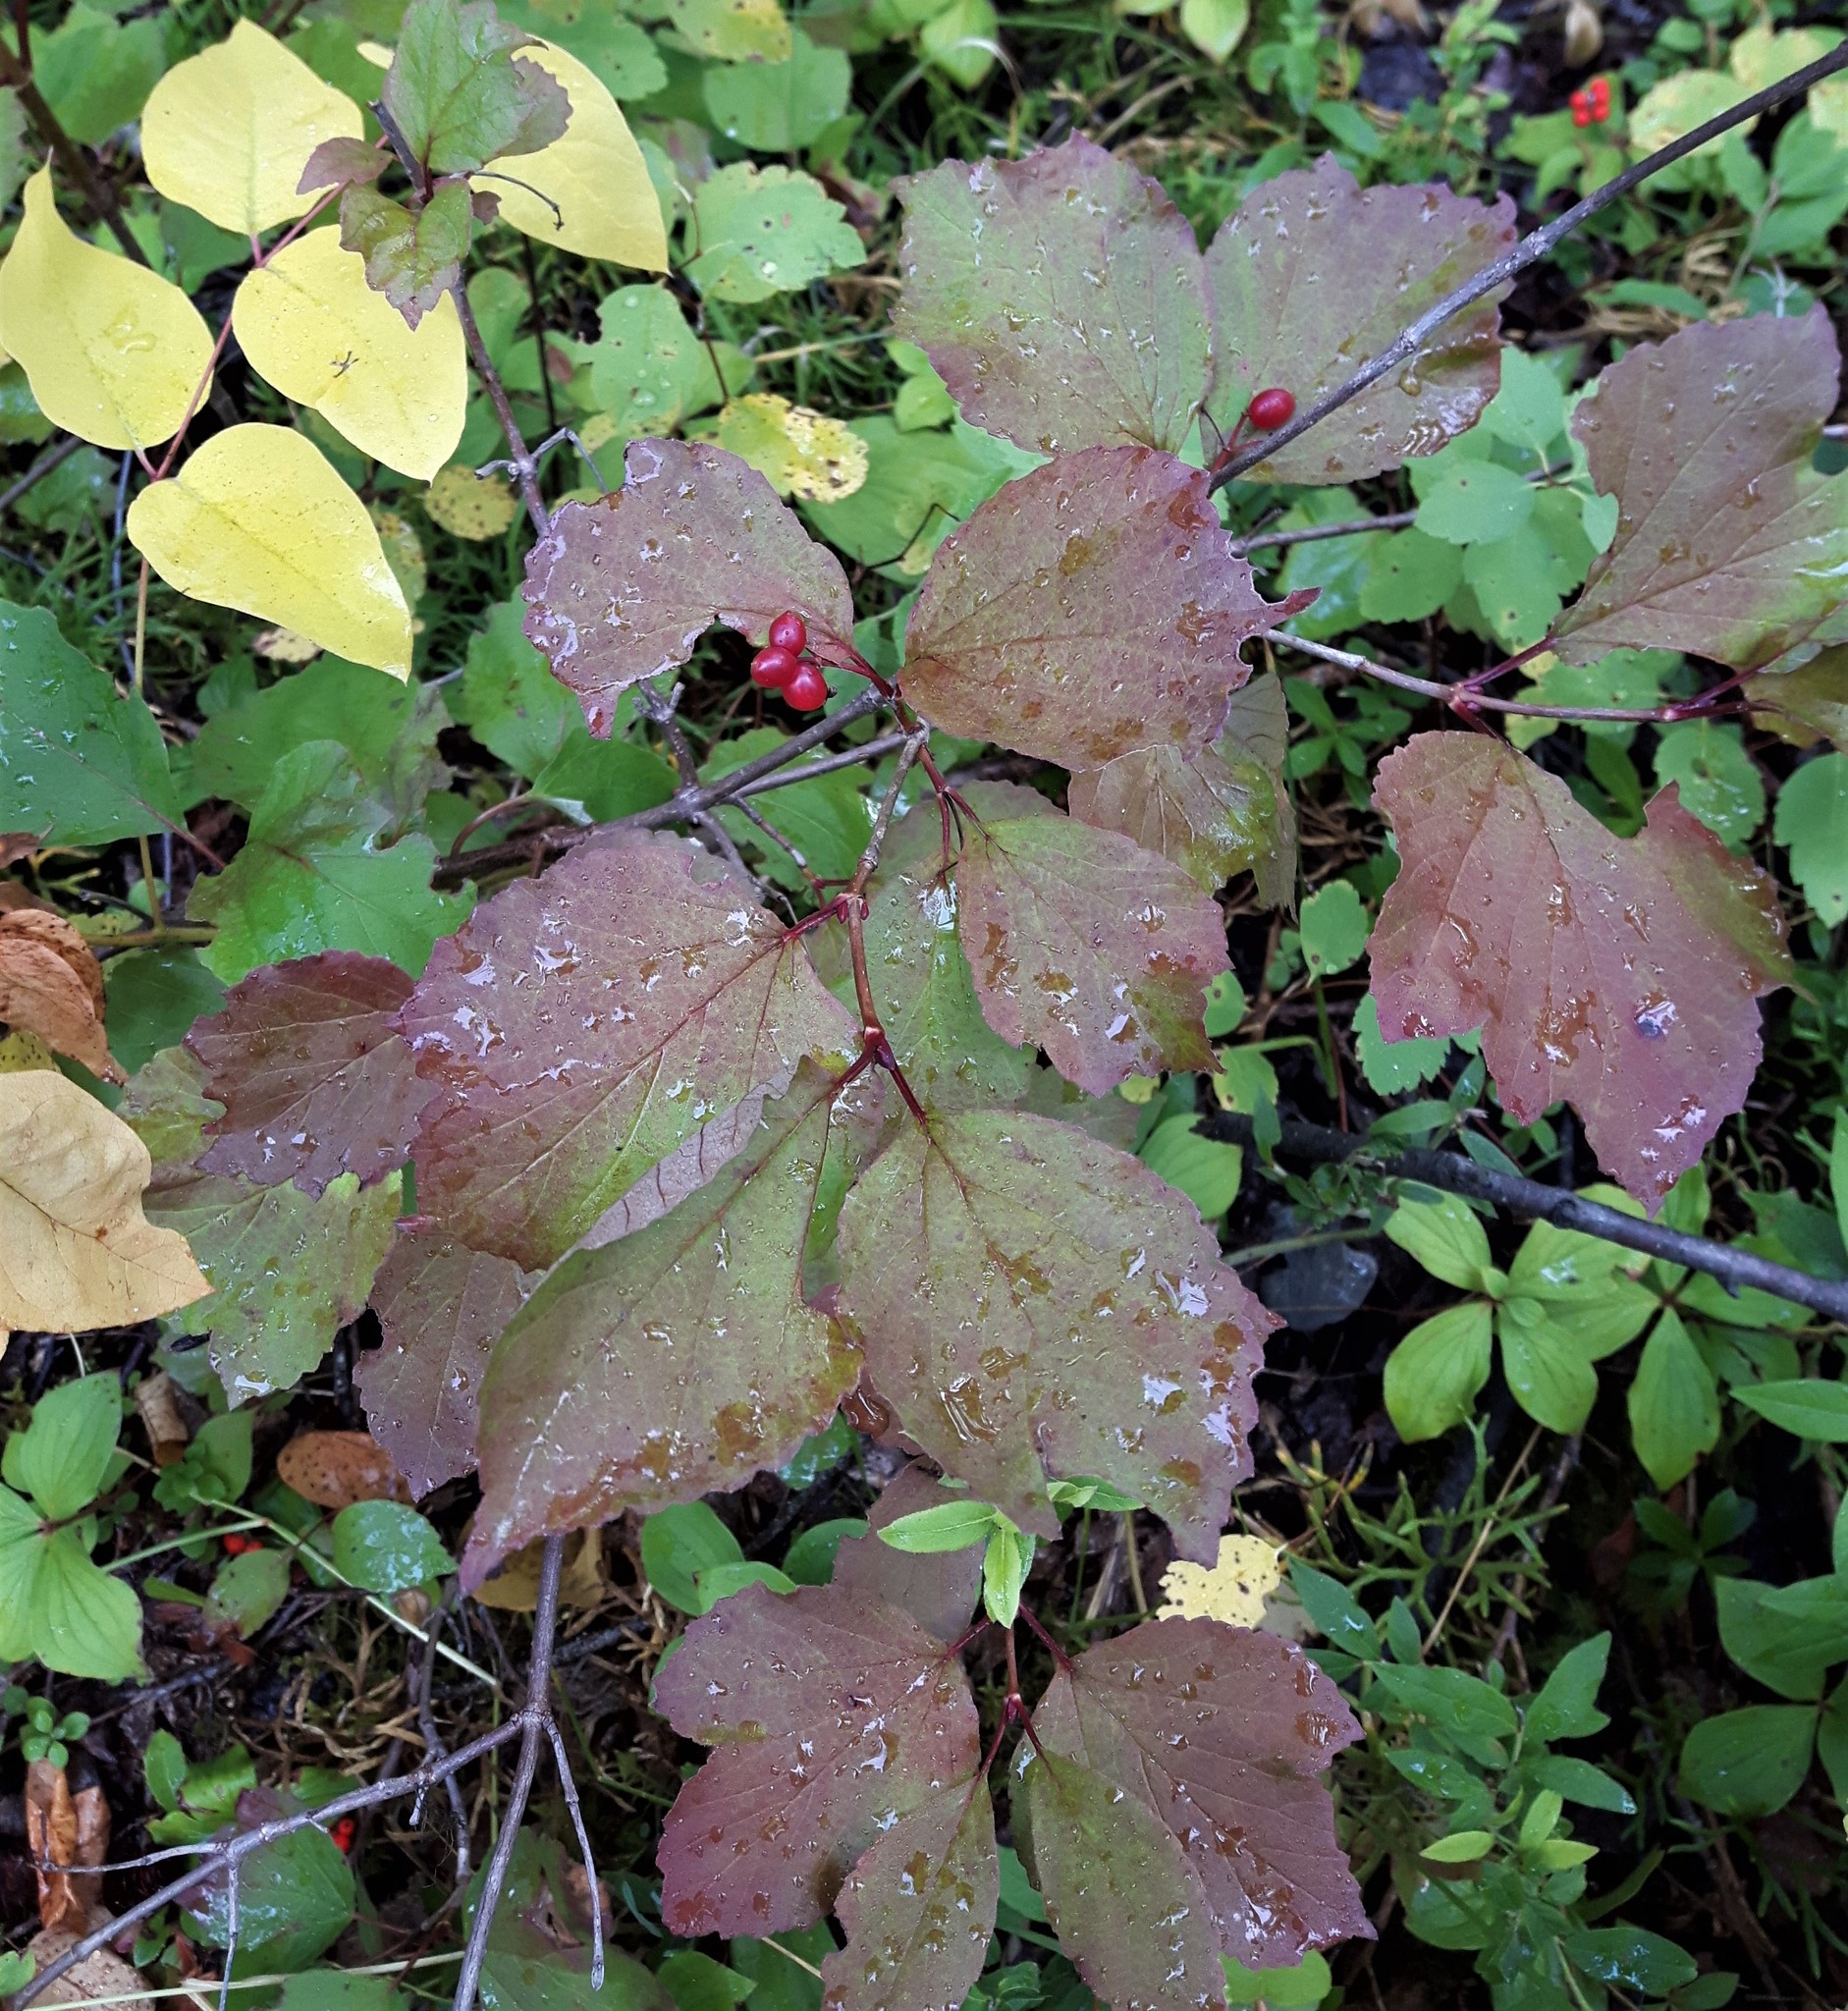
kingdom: Plantae
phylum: Tracheophyta
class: Magnoliopsida
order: Dipsacales
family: Viburnaceae
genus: Viburnum
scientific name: Viburnum edule
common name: Mooseberry
